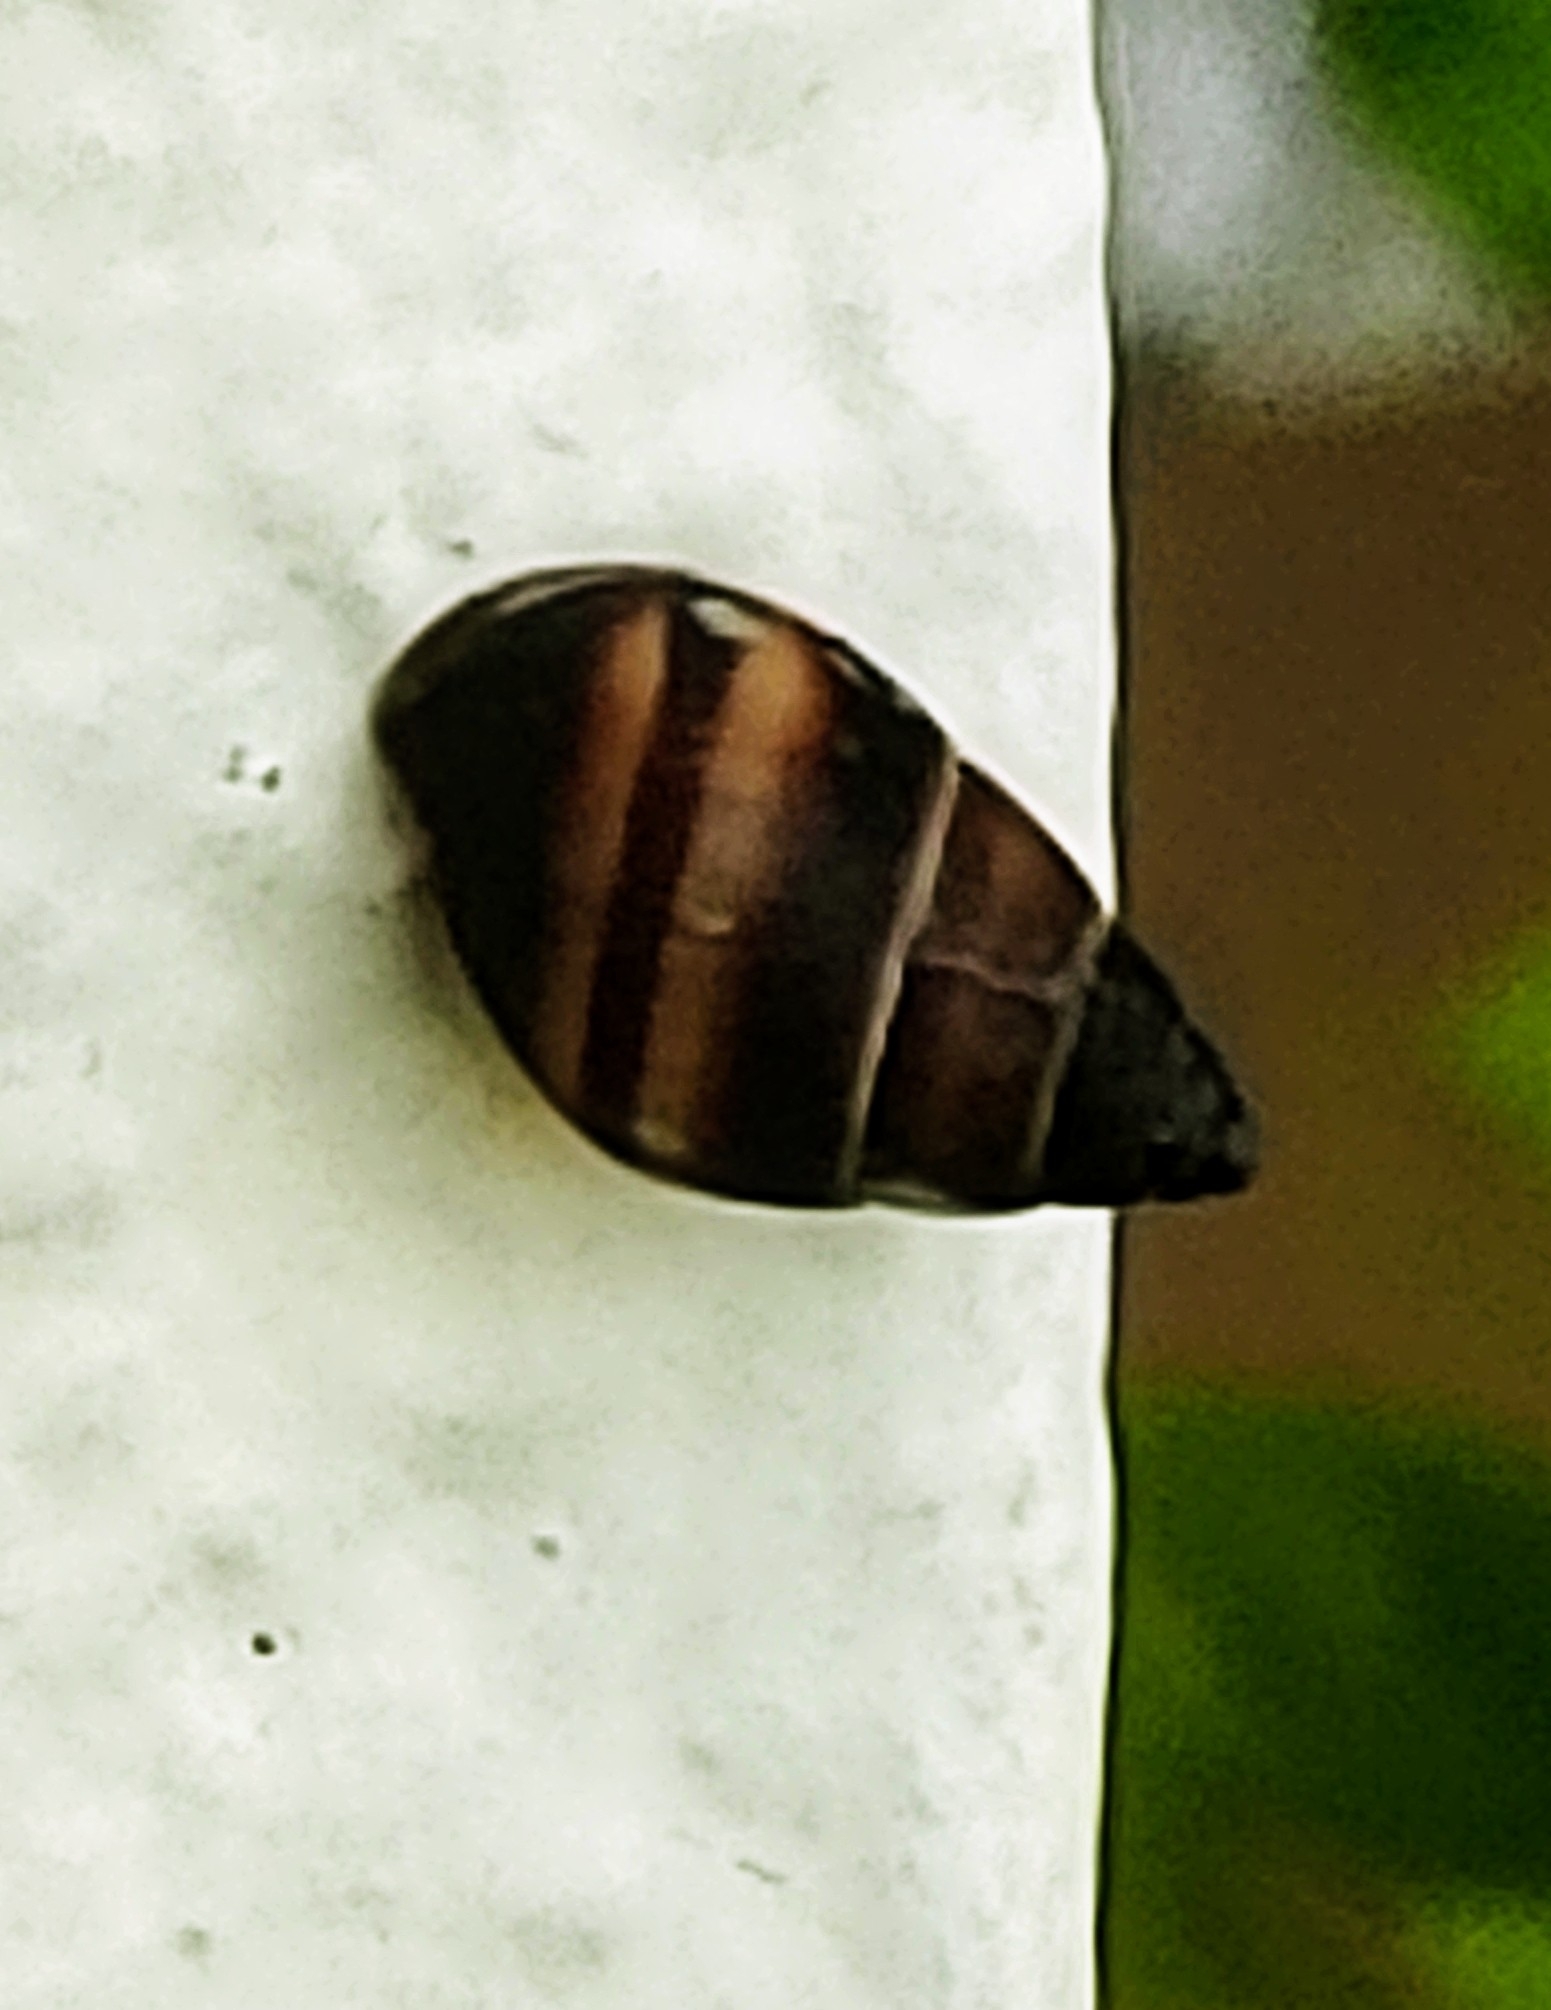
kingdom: Animalia
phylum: Mollusca
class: Gastropoda
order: Stylommatophora
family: Bulimulidae
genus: Bulimulus
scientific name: Bulimulus guadalupensis
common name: West indian bulimulus
